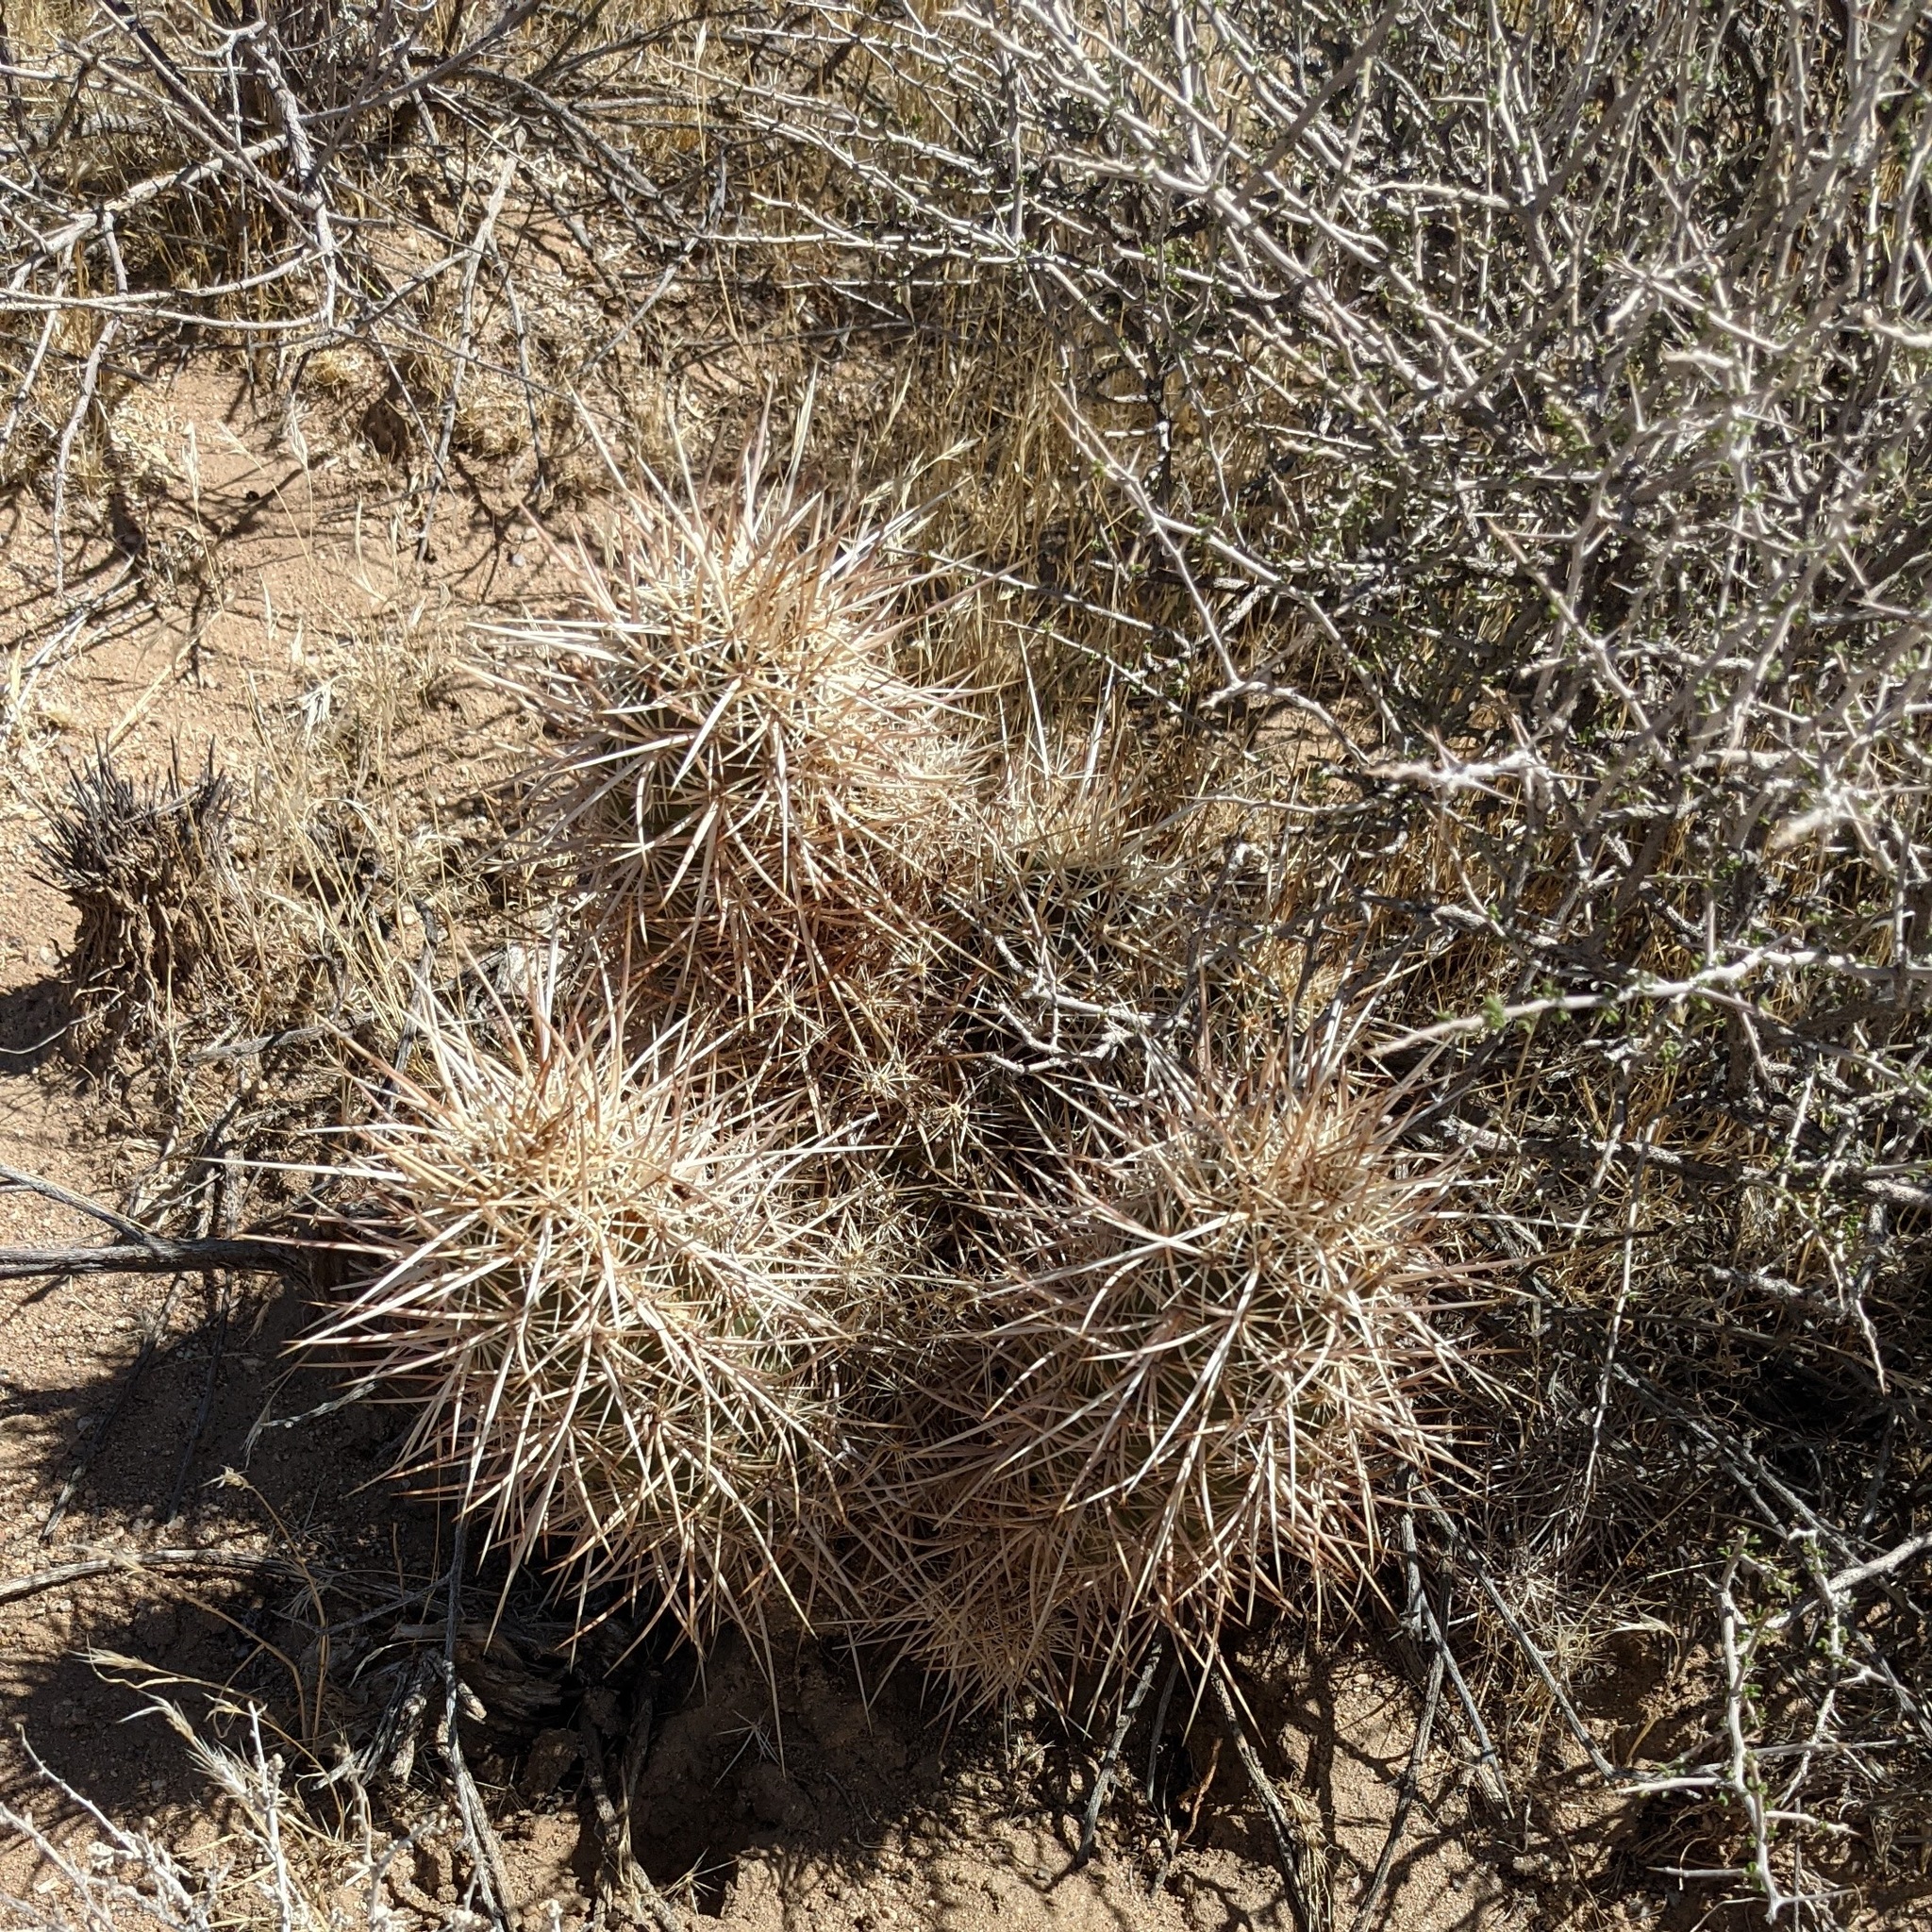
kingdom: Plantae
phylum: Tracheophyta
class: Magnoliopsida
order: Caryophyllales
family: Cactaceae
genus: Echinocereus
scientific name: Echinocereus engelmannii
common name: Engelmann's hedgehog cactus
